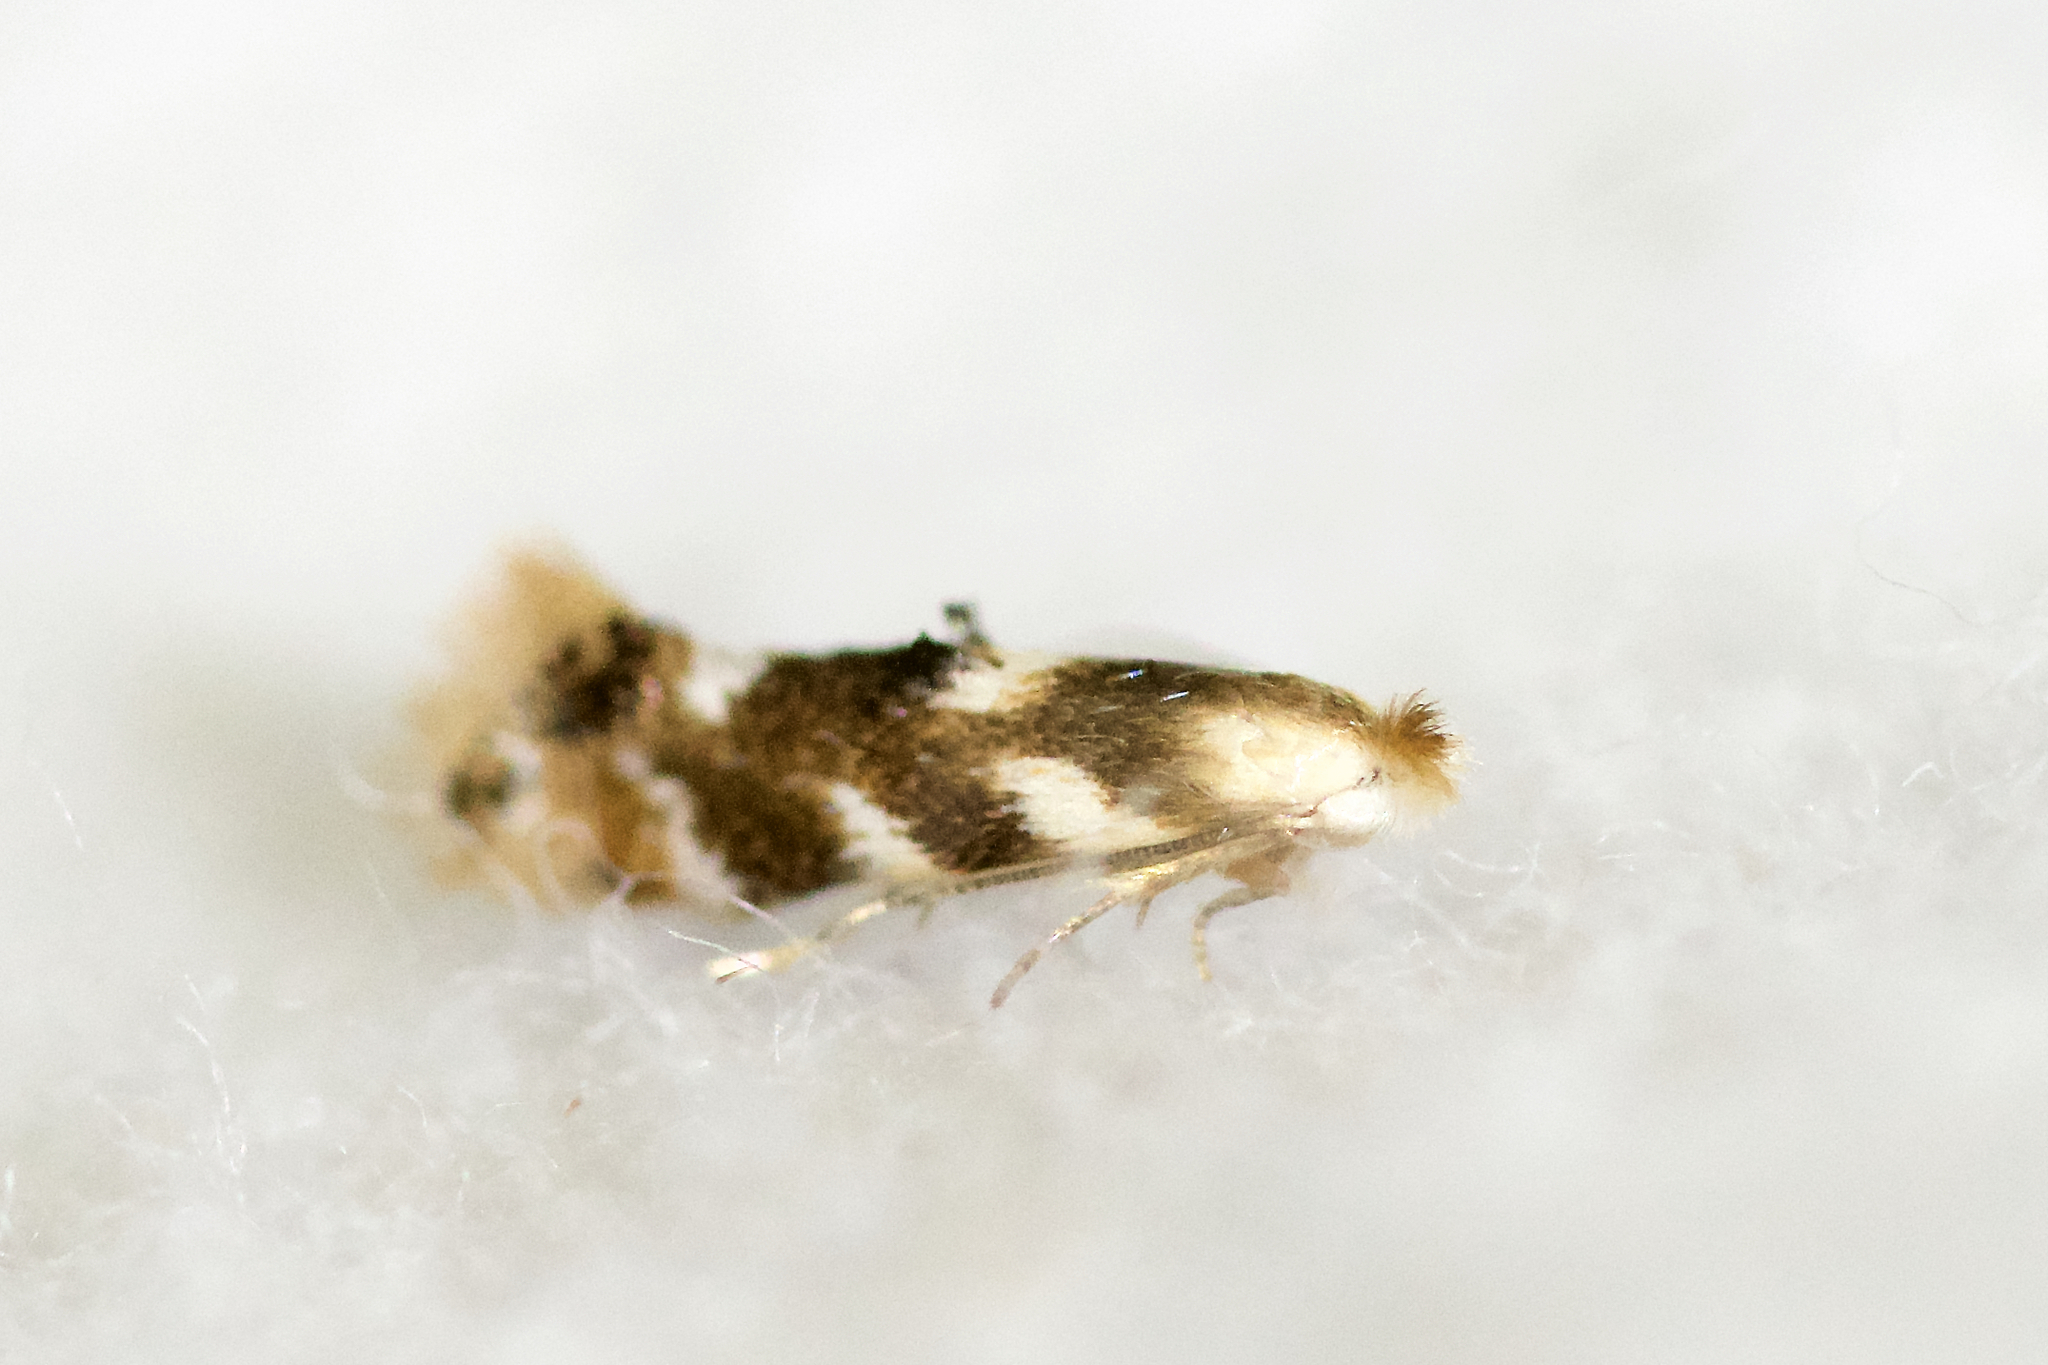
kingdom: Animalia
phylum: Arthropoda
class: Insecta
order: Lepidoptera
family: Bucculatricidae
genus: Bucculatrix
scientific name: Bucculatrix canadensisella
